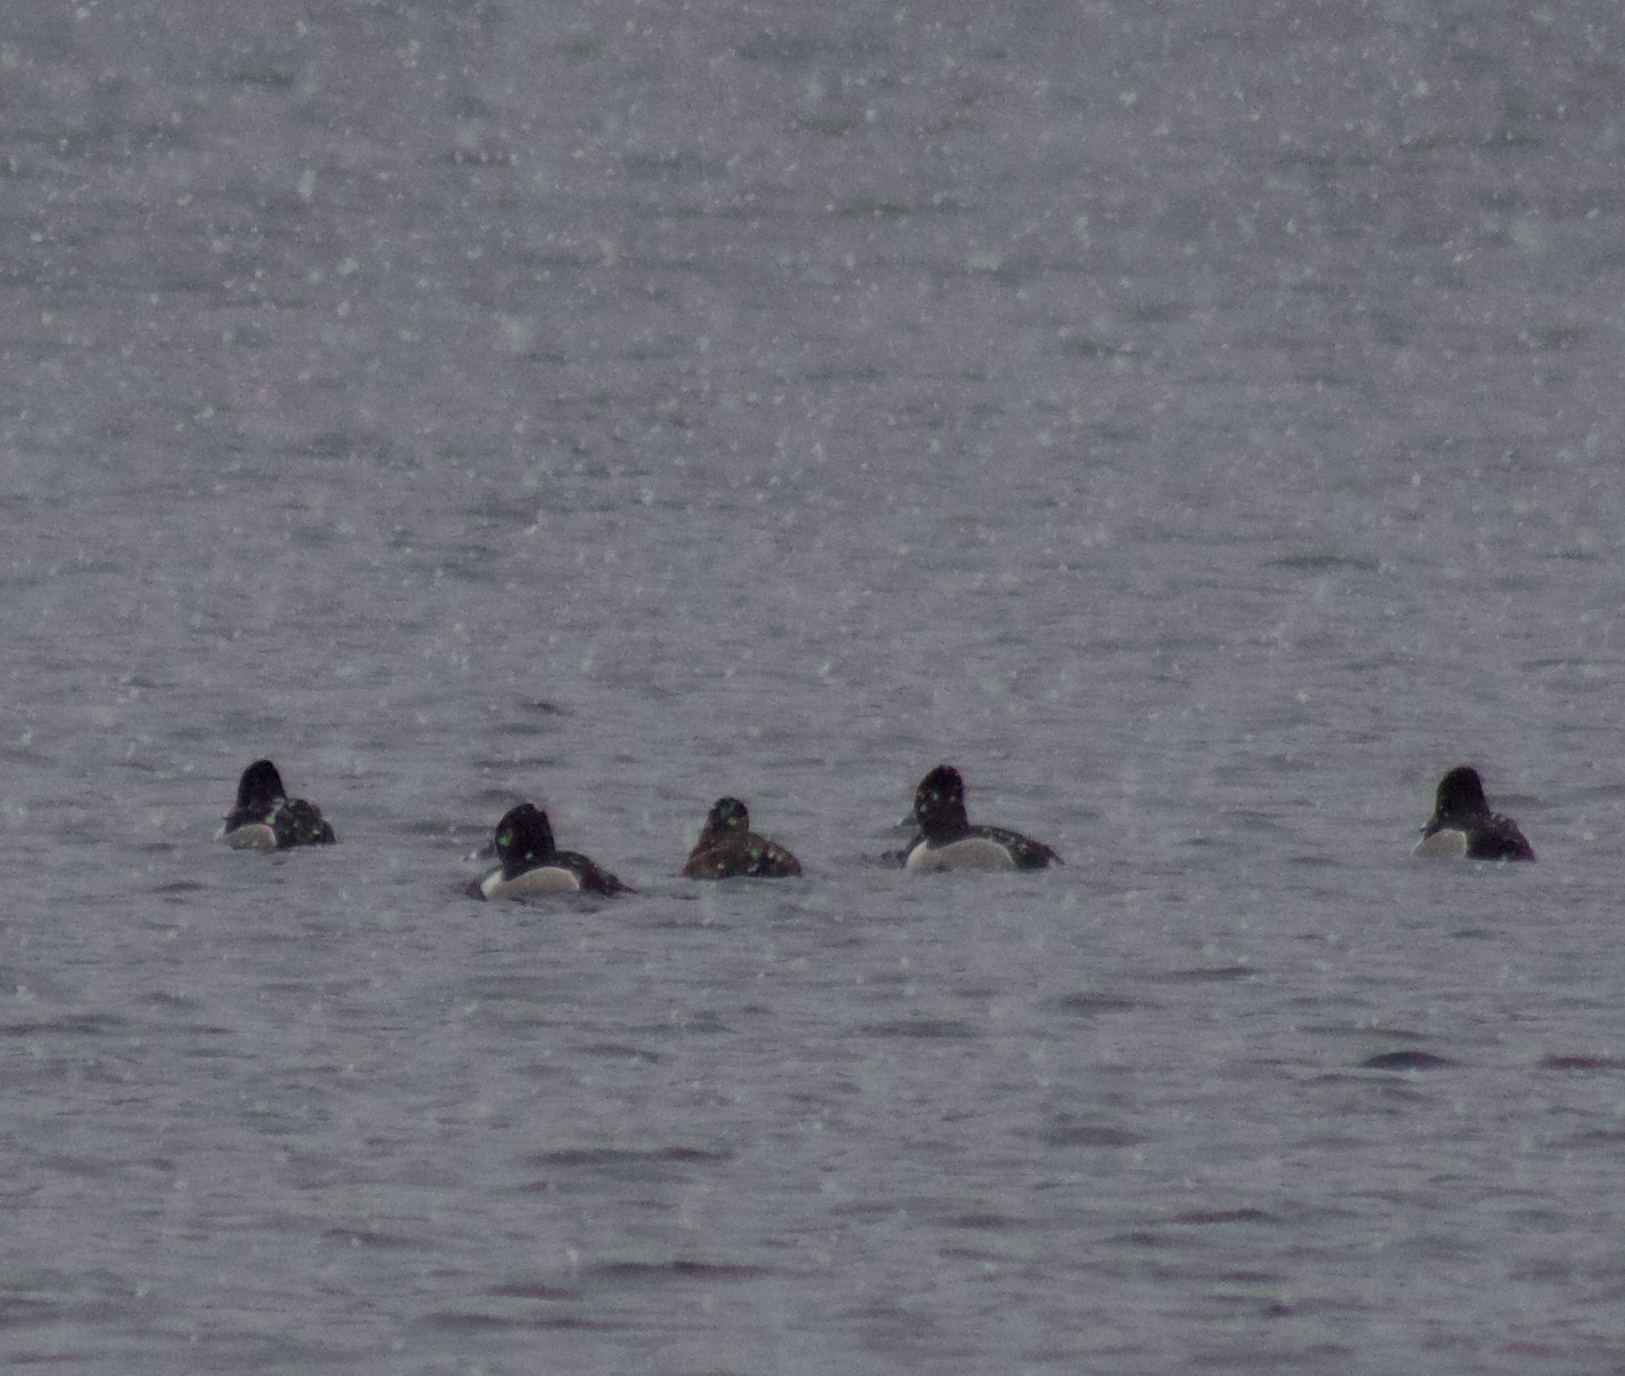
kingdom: Animalia
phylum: Chordata
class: Aves
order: Anseriformes
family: Anatidae
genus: Aythya
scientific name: Aythya collaris
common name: Ring-necked duck
